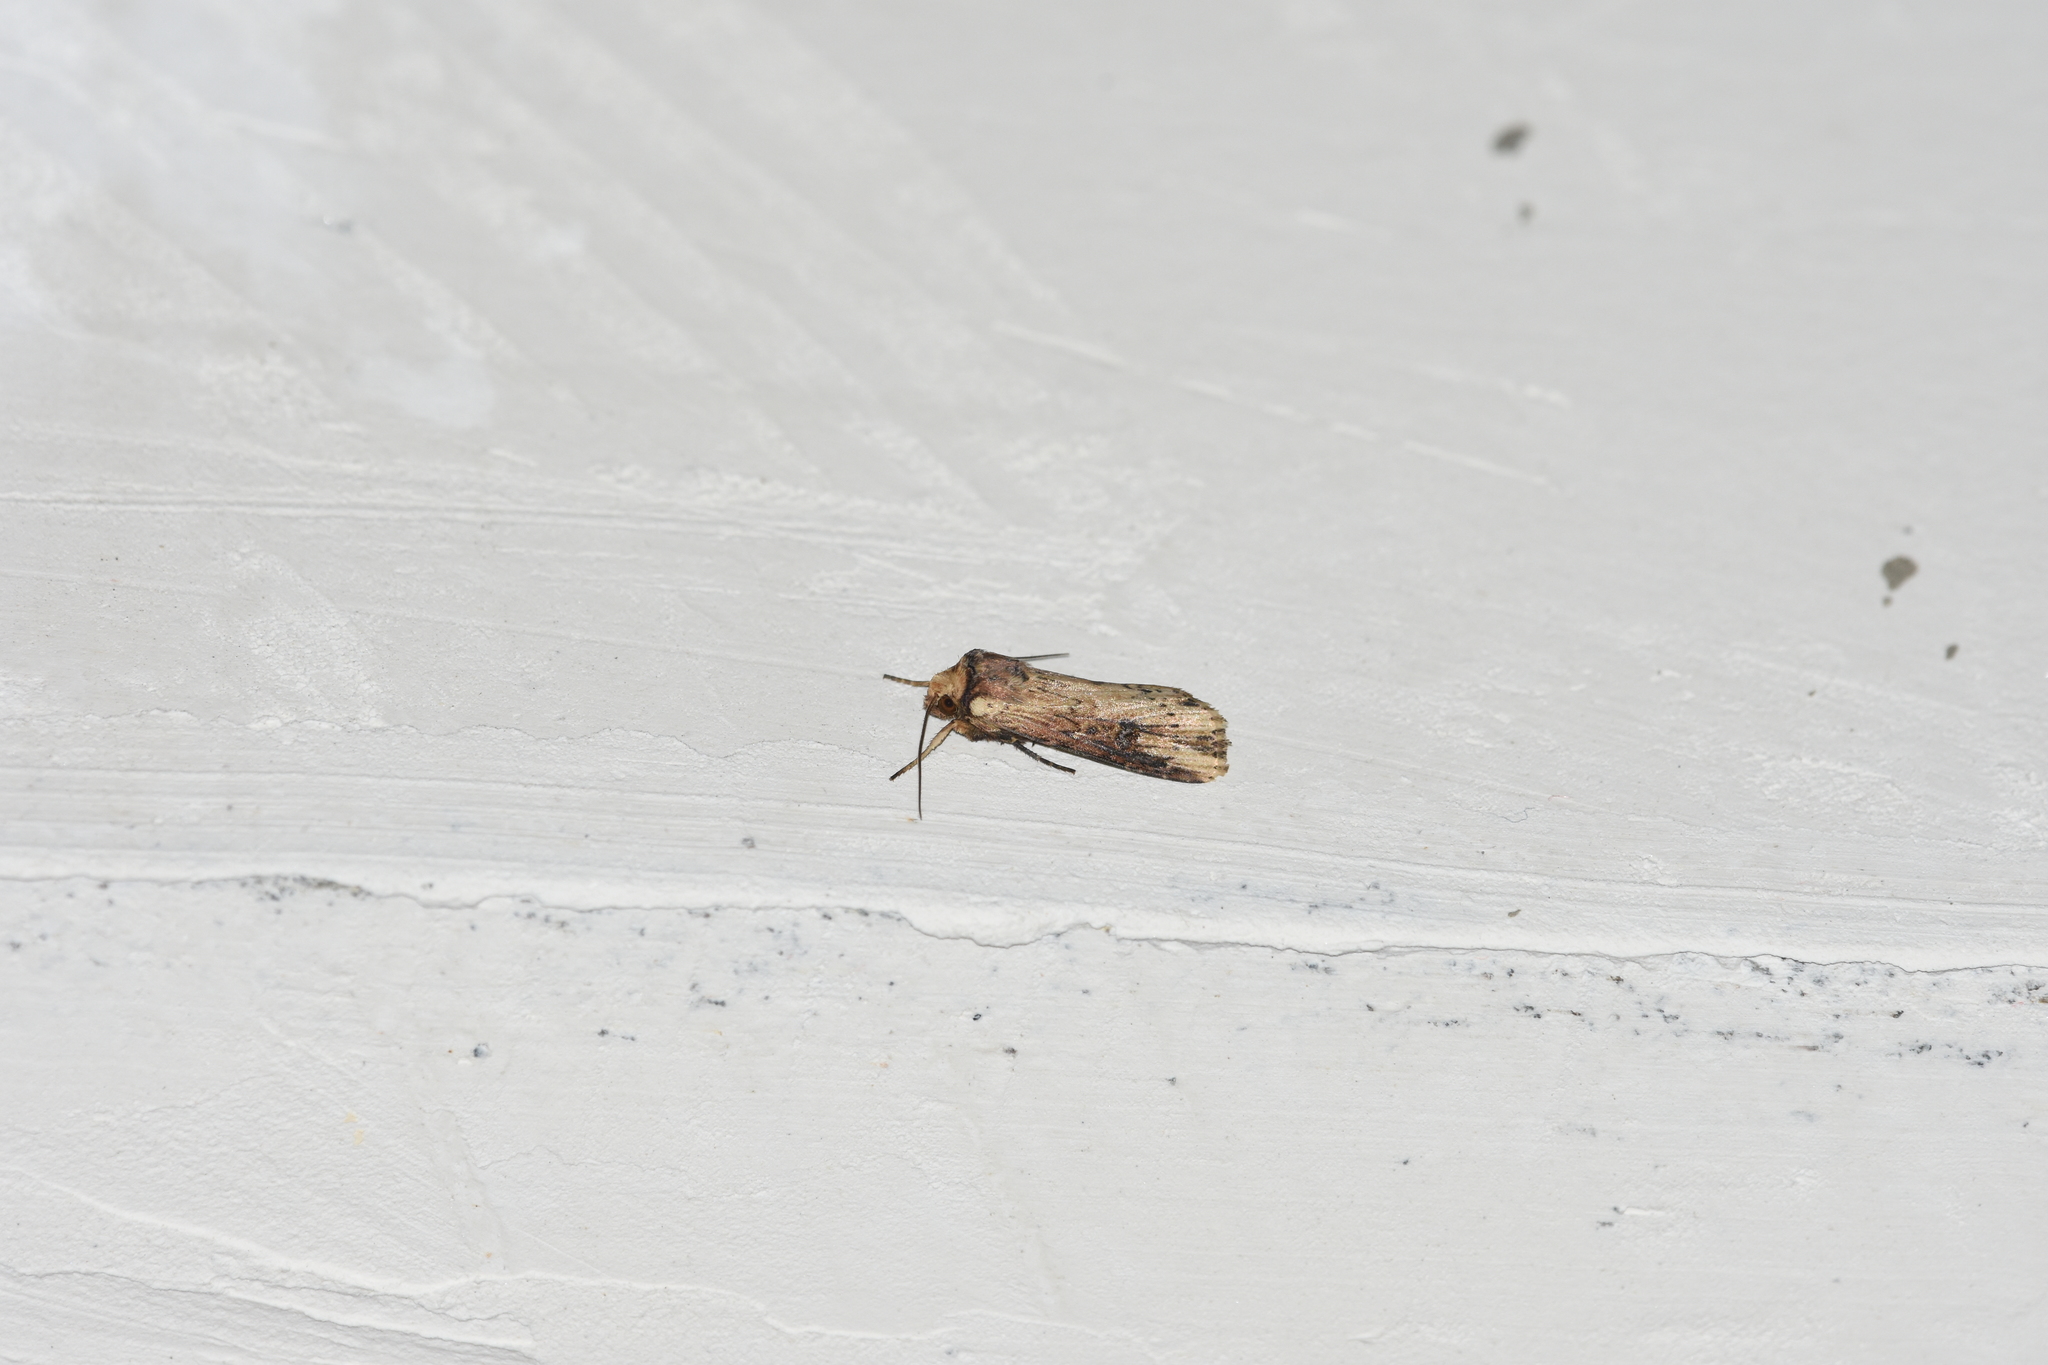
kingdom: Animalia
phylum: Arthropoda
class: Insecta
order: Lepidoptera
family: Noctuidae
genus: Axylia
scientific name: Axylia putris
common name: Flame
